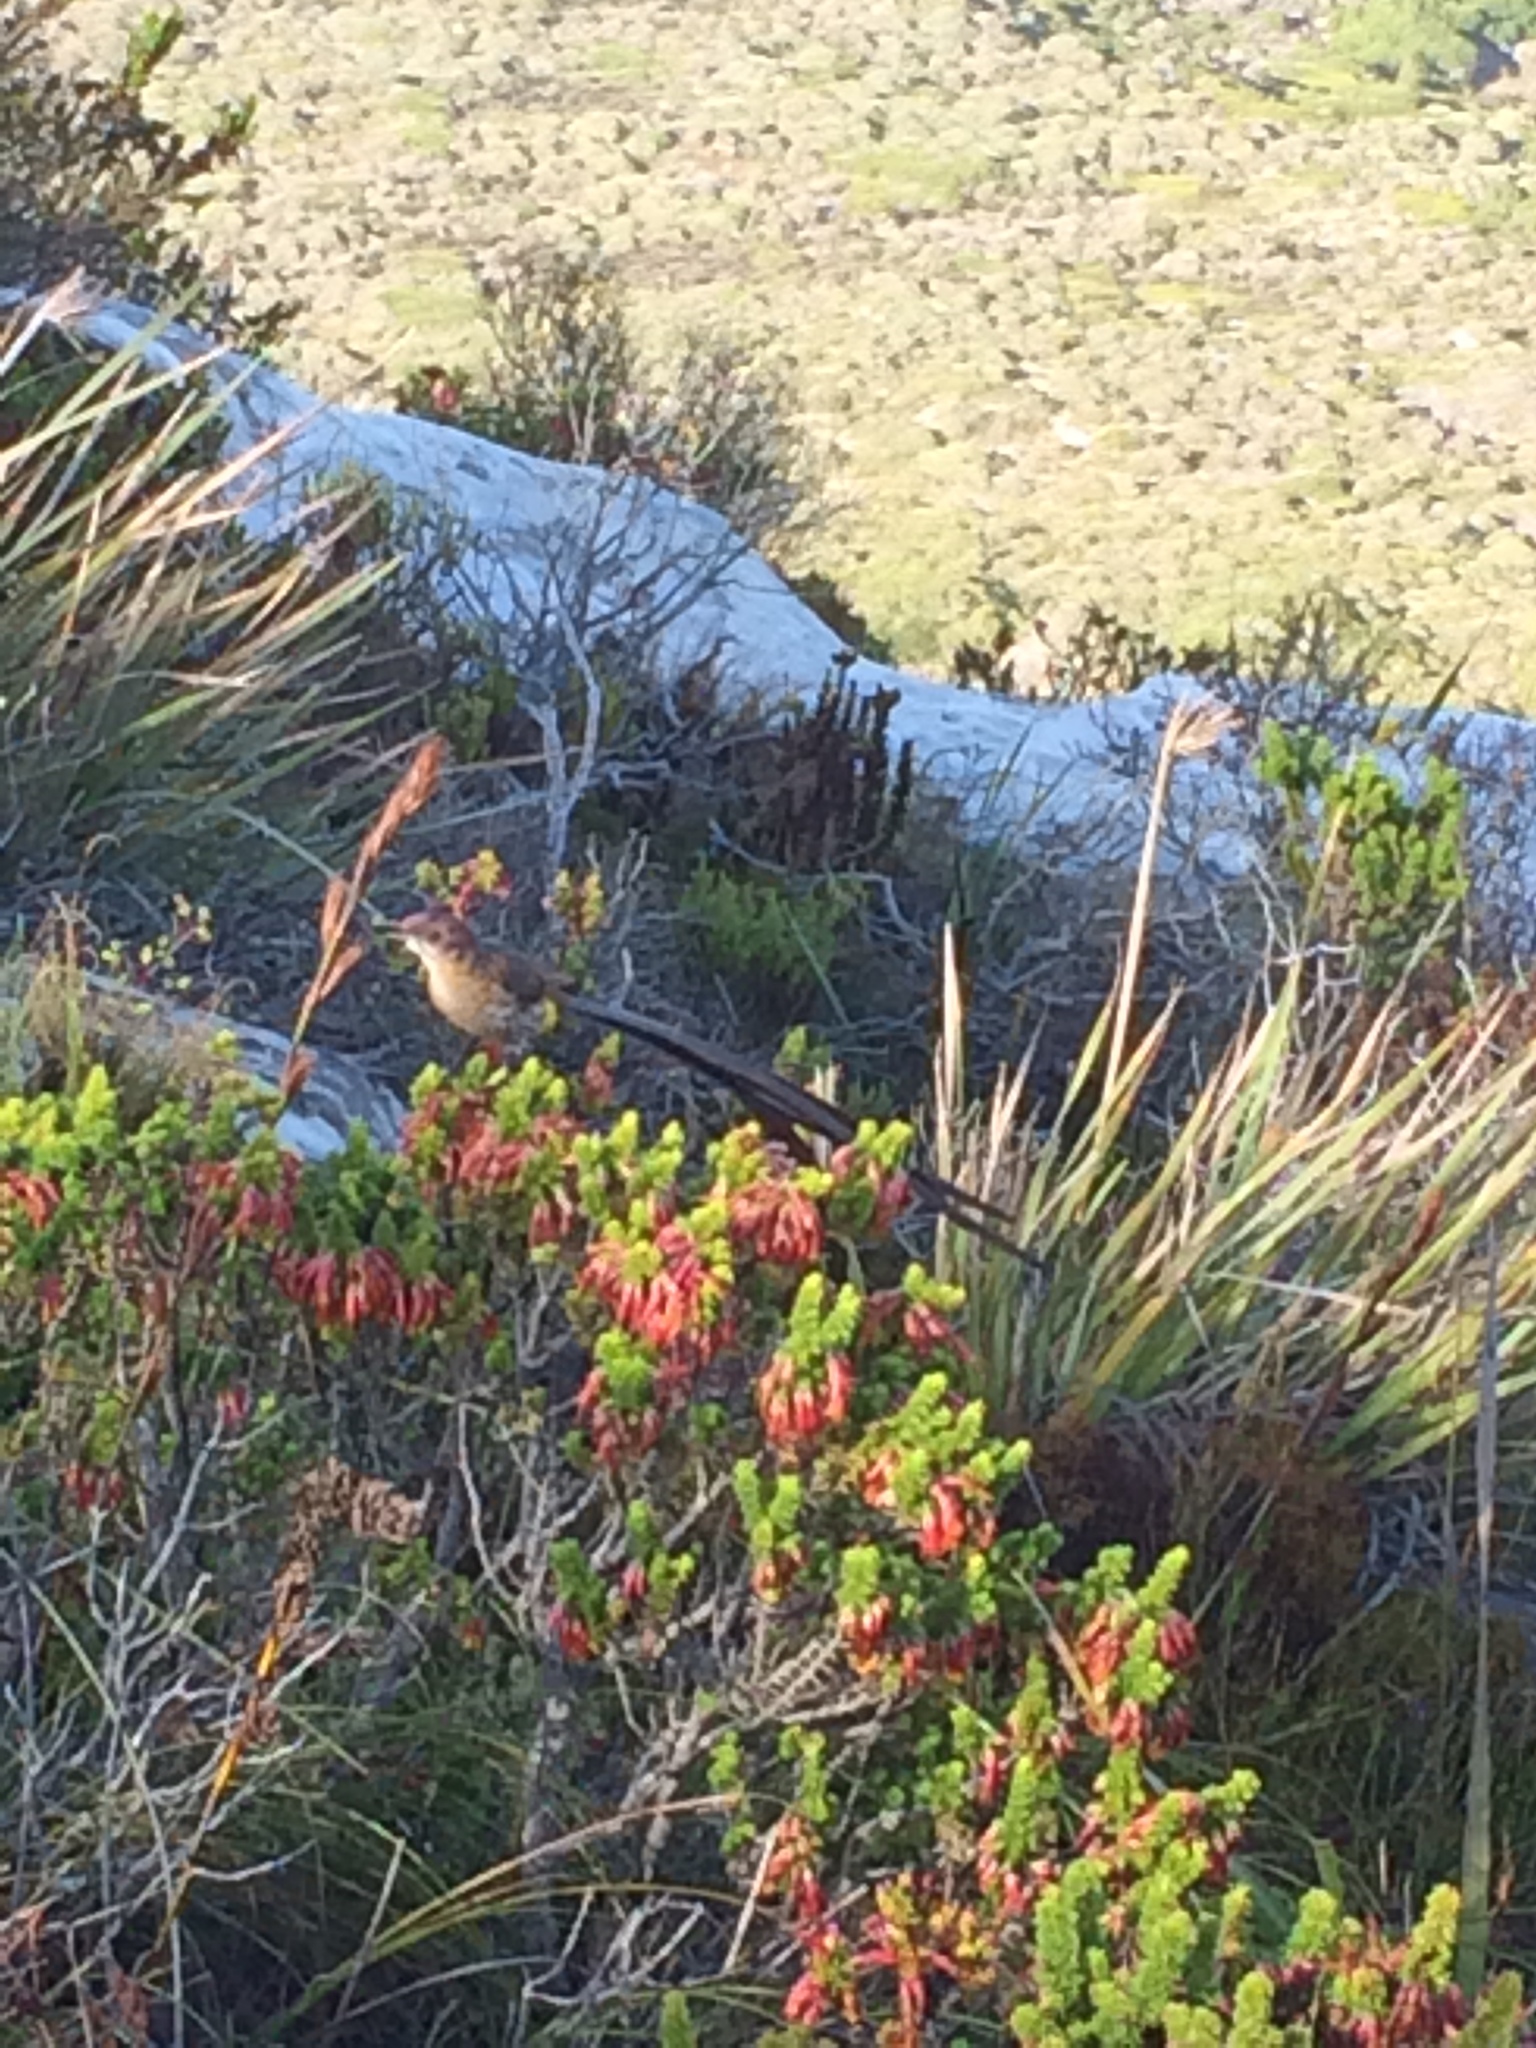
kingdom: Animalia
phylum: Chordata
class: Aves
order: Passeriformes
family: Promeropidae
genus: Promerops
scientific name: Promerops cafer
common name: Cape sugarbird
